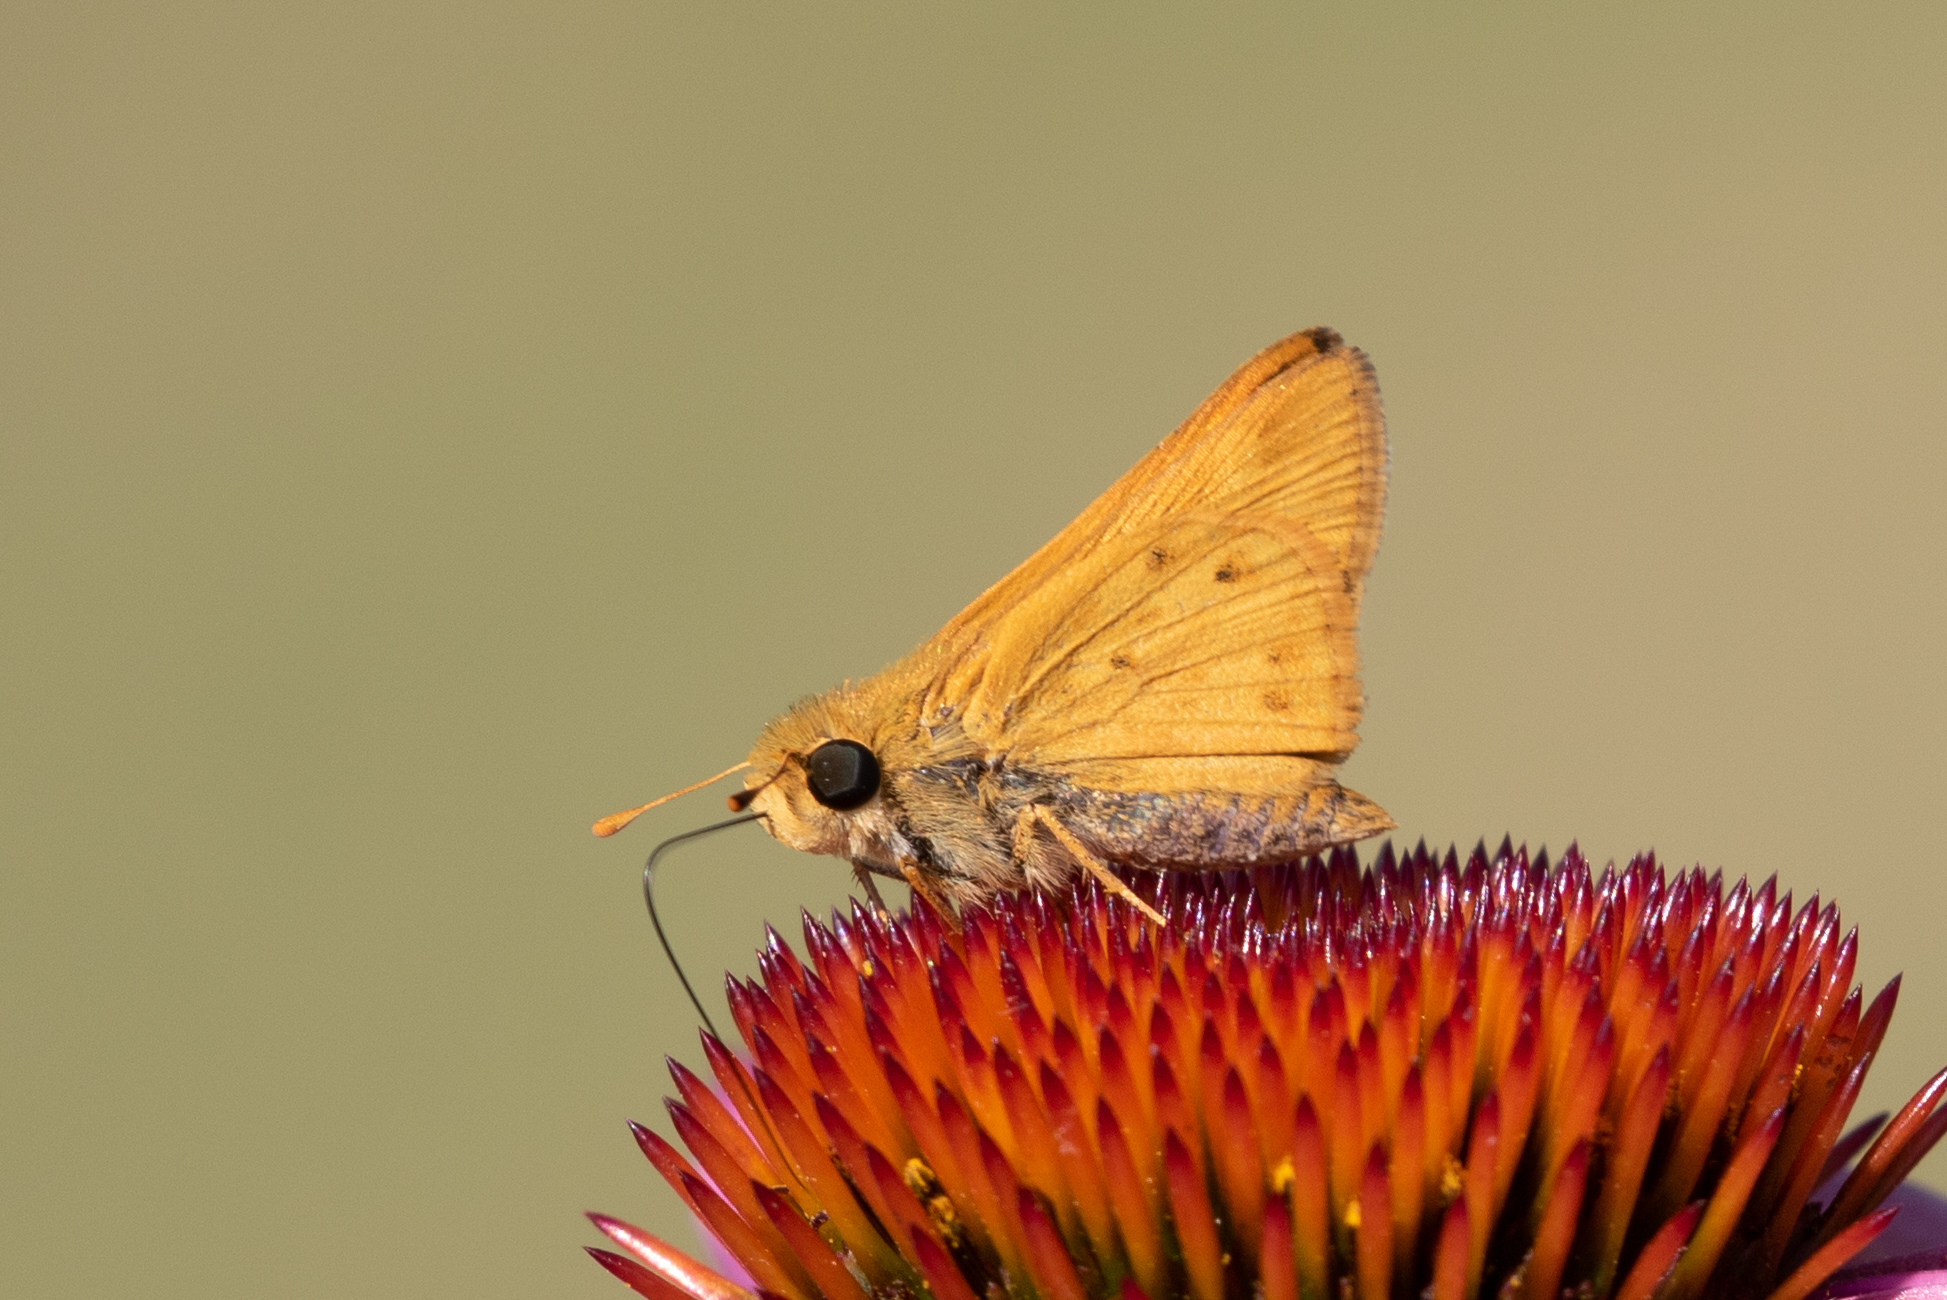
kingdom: Animalia
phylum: Arthropoda
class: Insecta
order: Lepidoptera
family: Hesperiidae
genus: Hylephila
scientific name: Hylephila phyleus
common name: Fiery skipper
